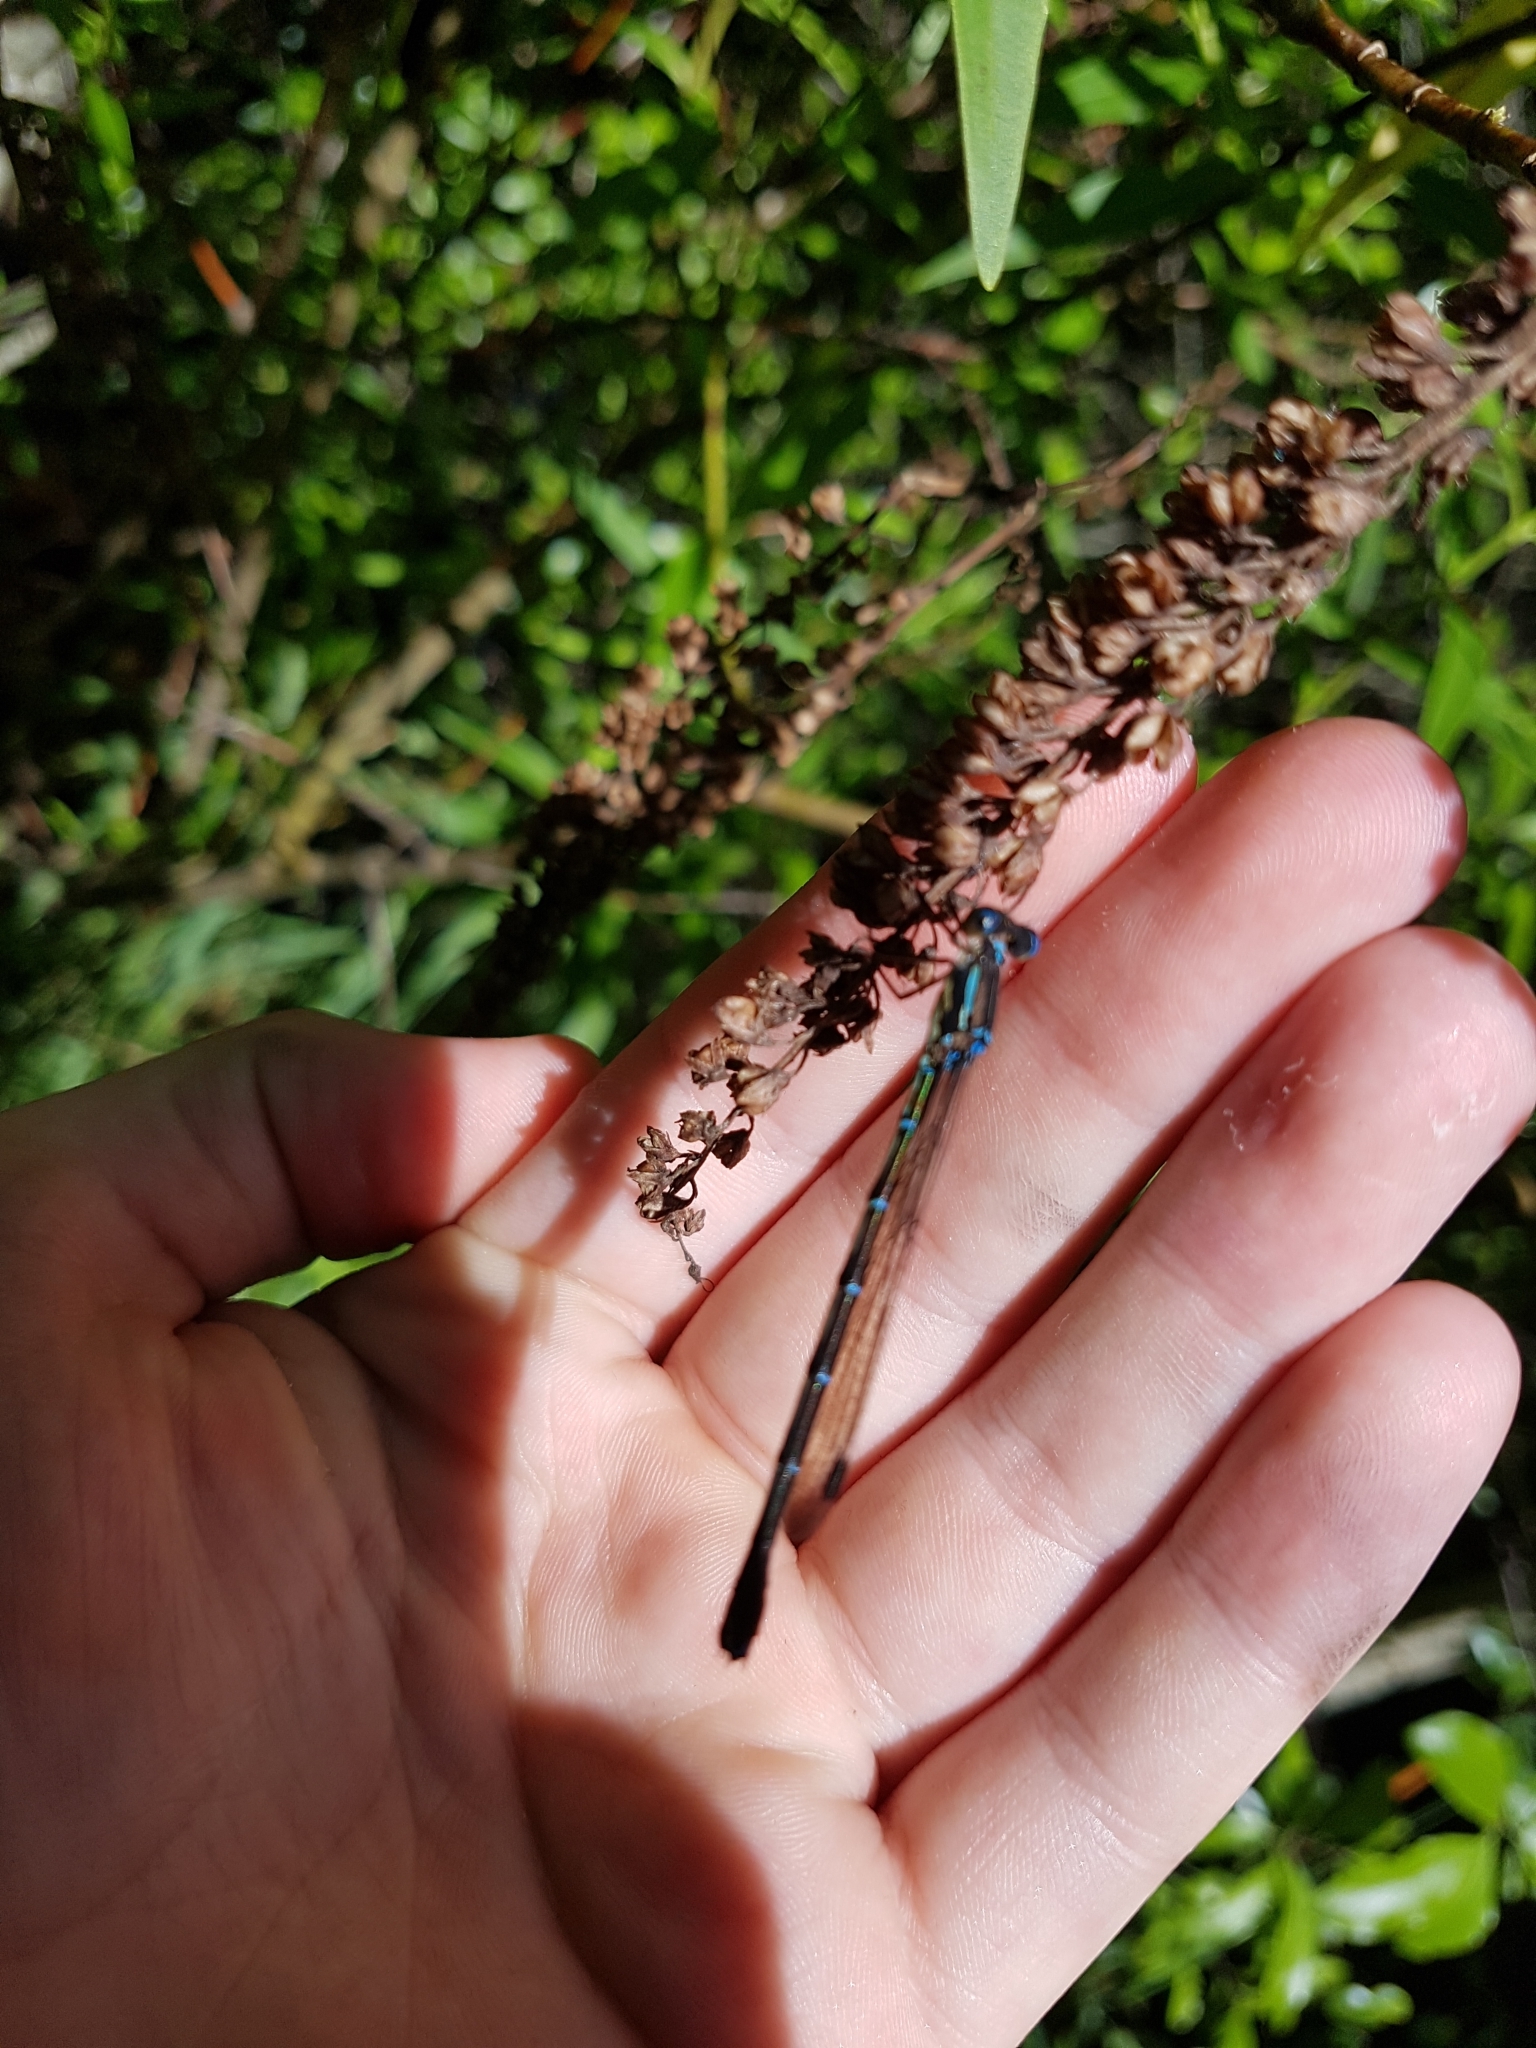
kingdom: Animalia
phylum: Arthropoda
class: Insecta
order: Odonata
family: Lestidae
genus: Austrolestes
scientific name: Austrolestes colensonis
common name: Blue damselfly
